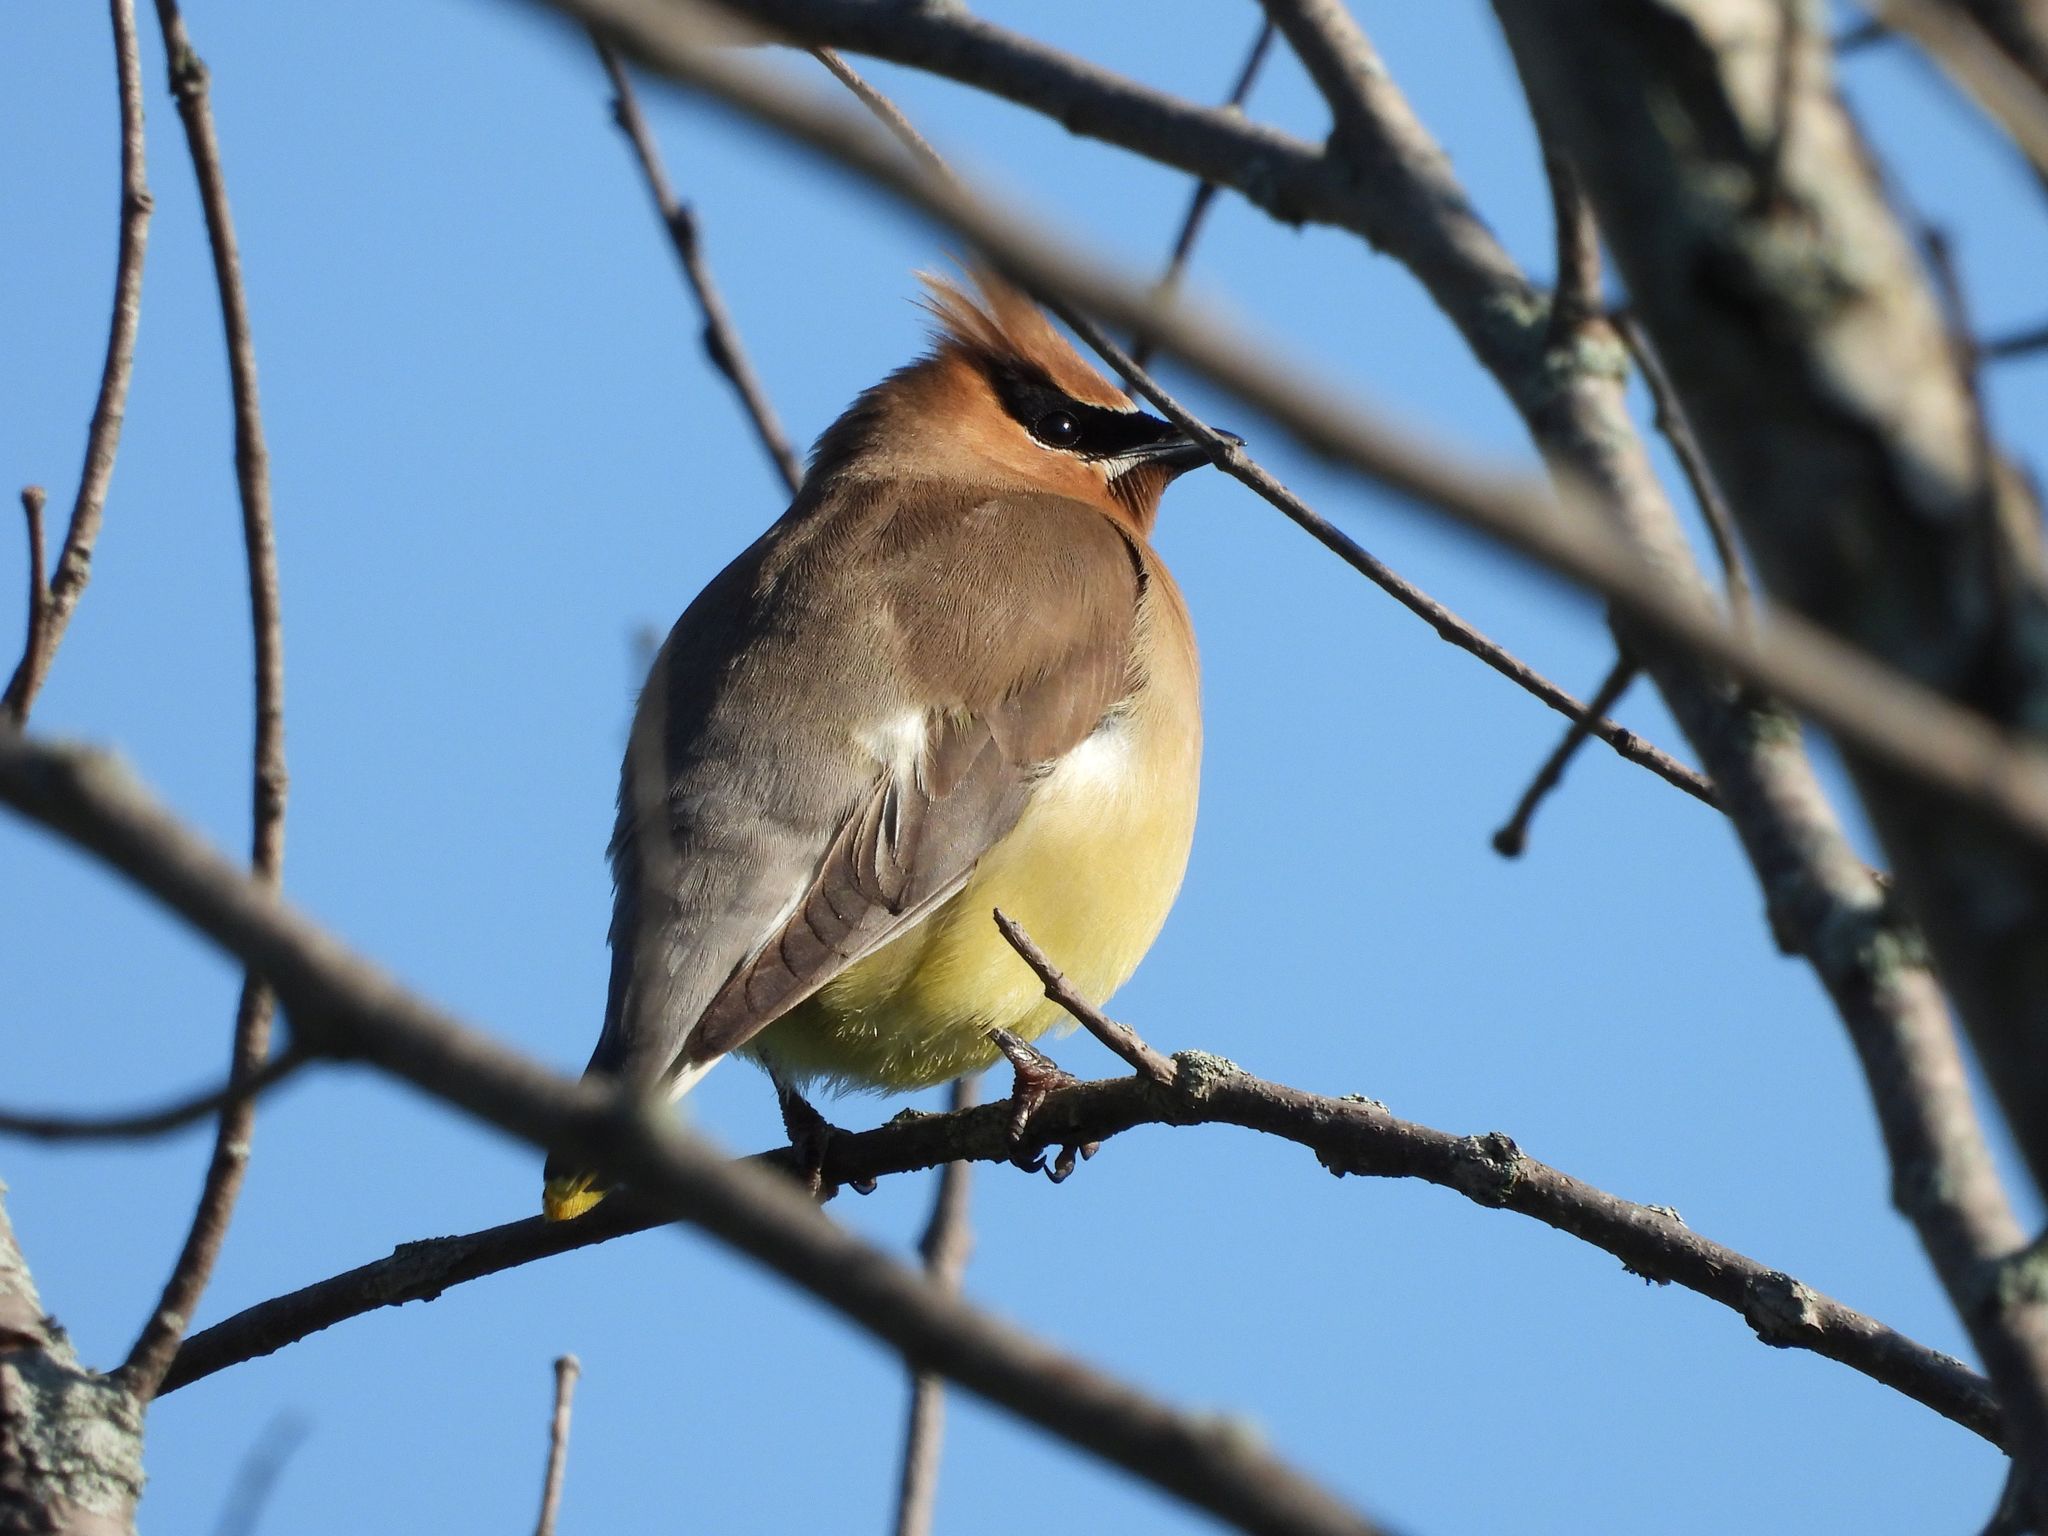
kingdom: Animalia
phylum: Chordata
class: Aves
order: Passeriformes
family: Bombycillidae
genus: Bombycilla
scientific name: Bombycilla cedrorum
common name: Cedar waxwing
